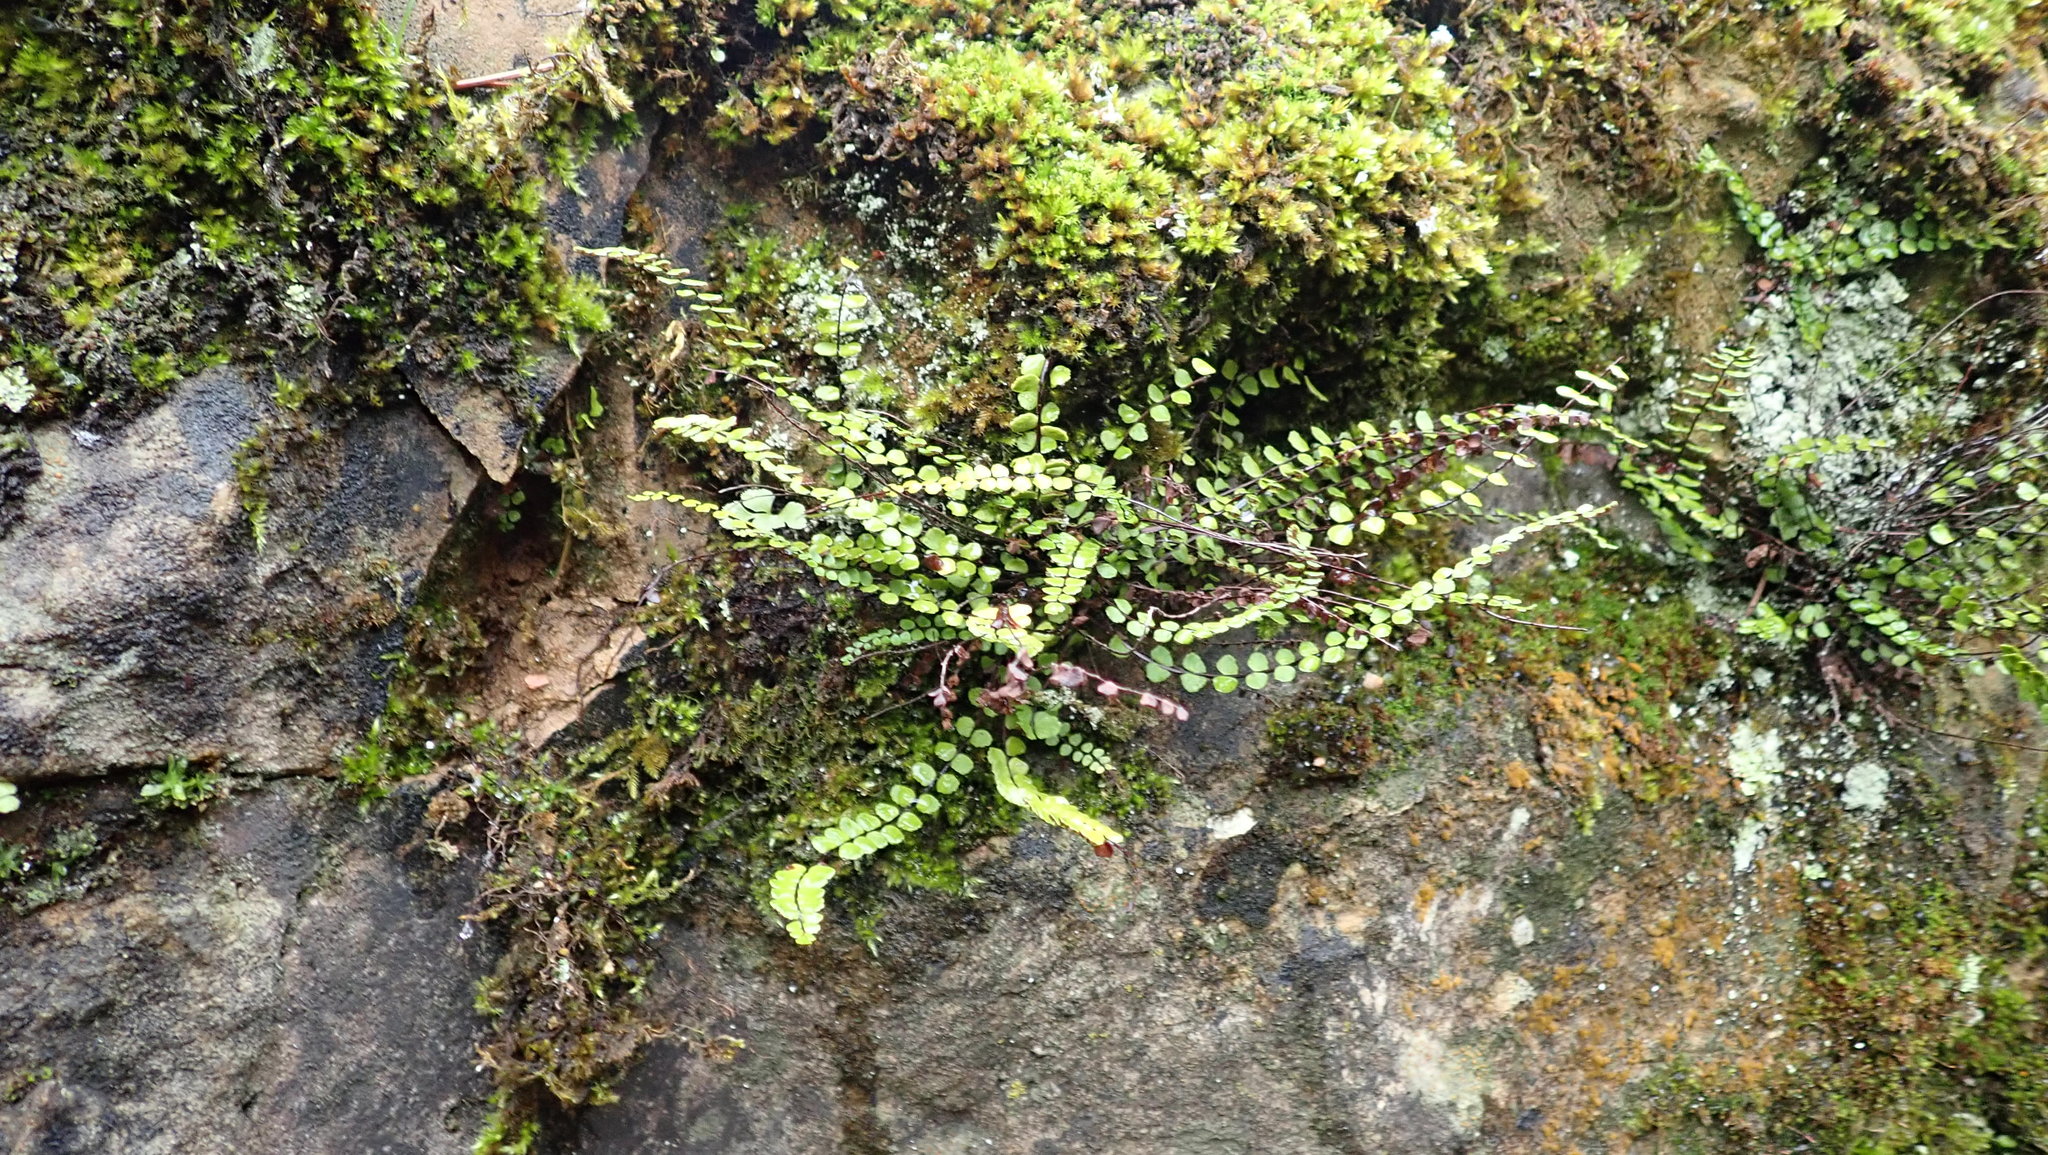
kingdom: Plantae
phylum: Tracheophyta
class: Polypodiopsida
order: Polypodiales
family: Aspleniaceae
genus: Asplenium
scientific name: Asplenium trichomanes
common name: Maidenhair spleenwort
